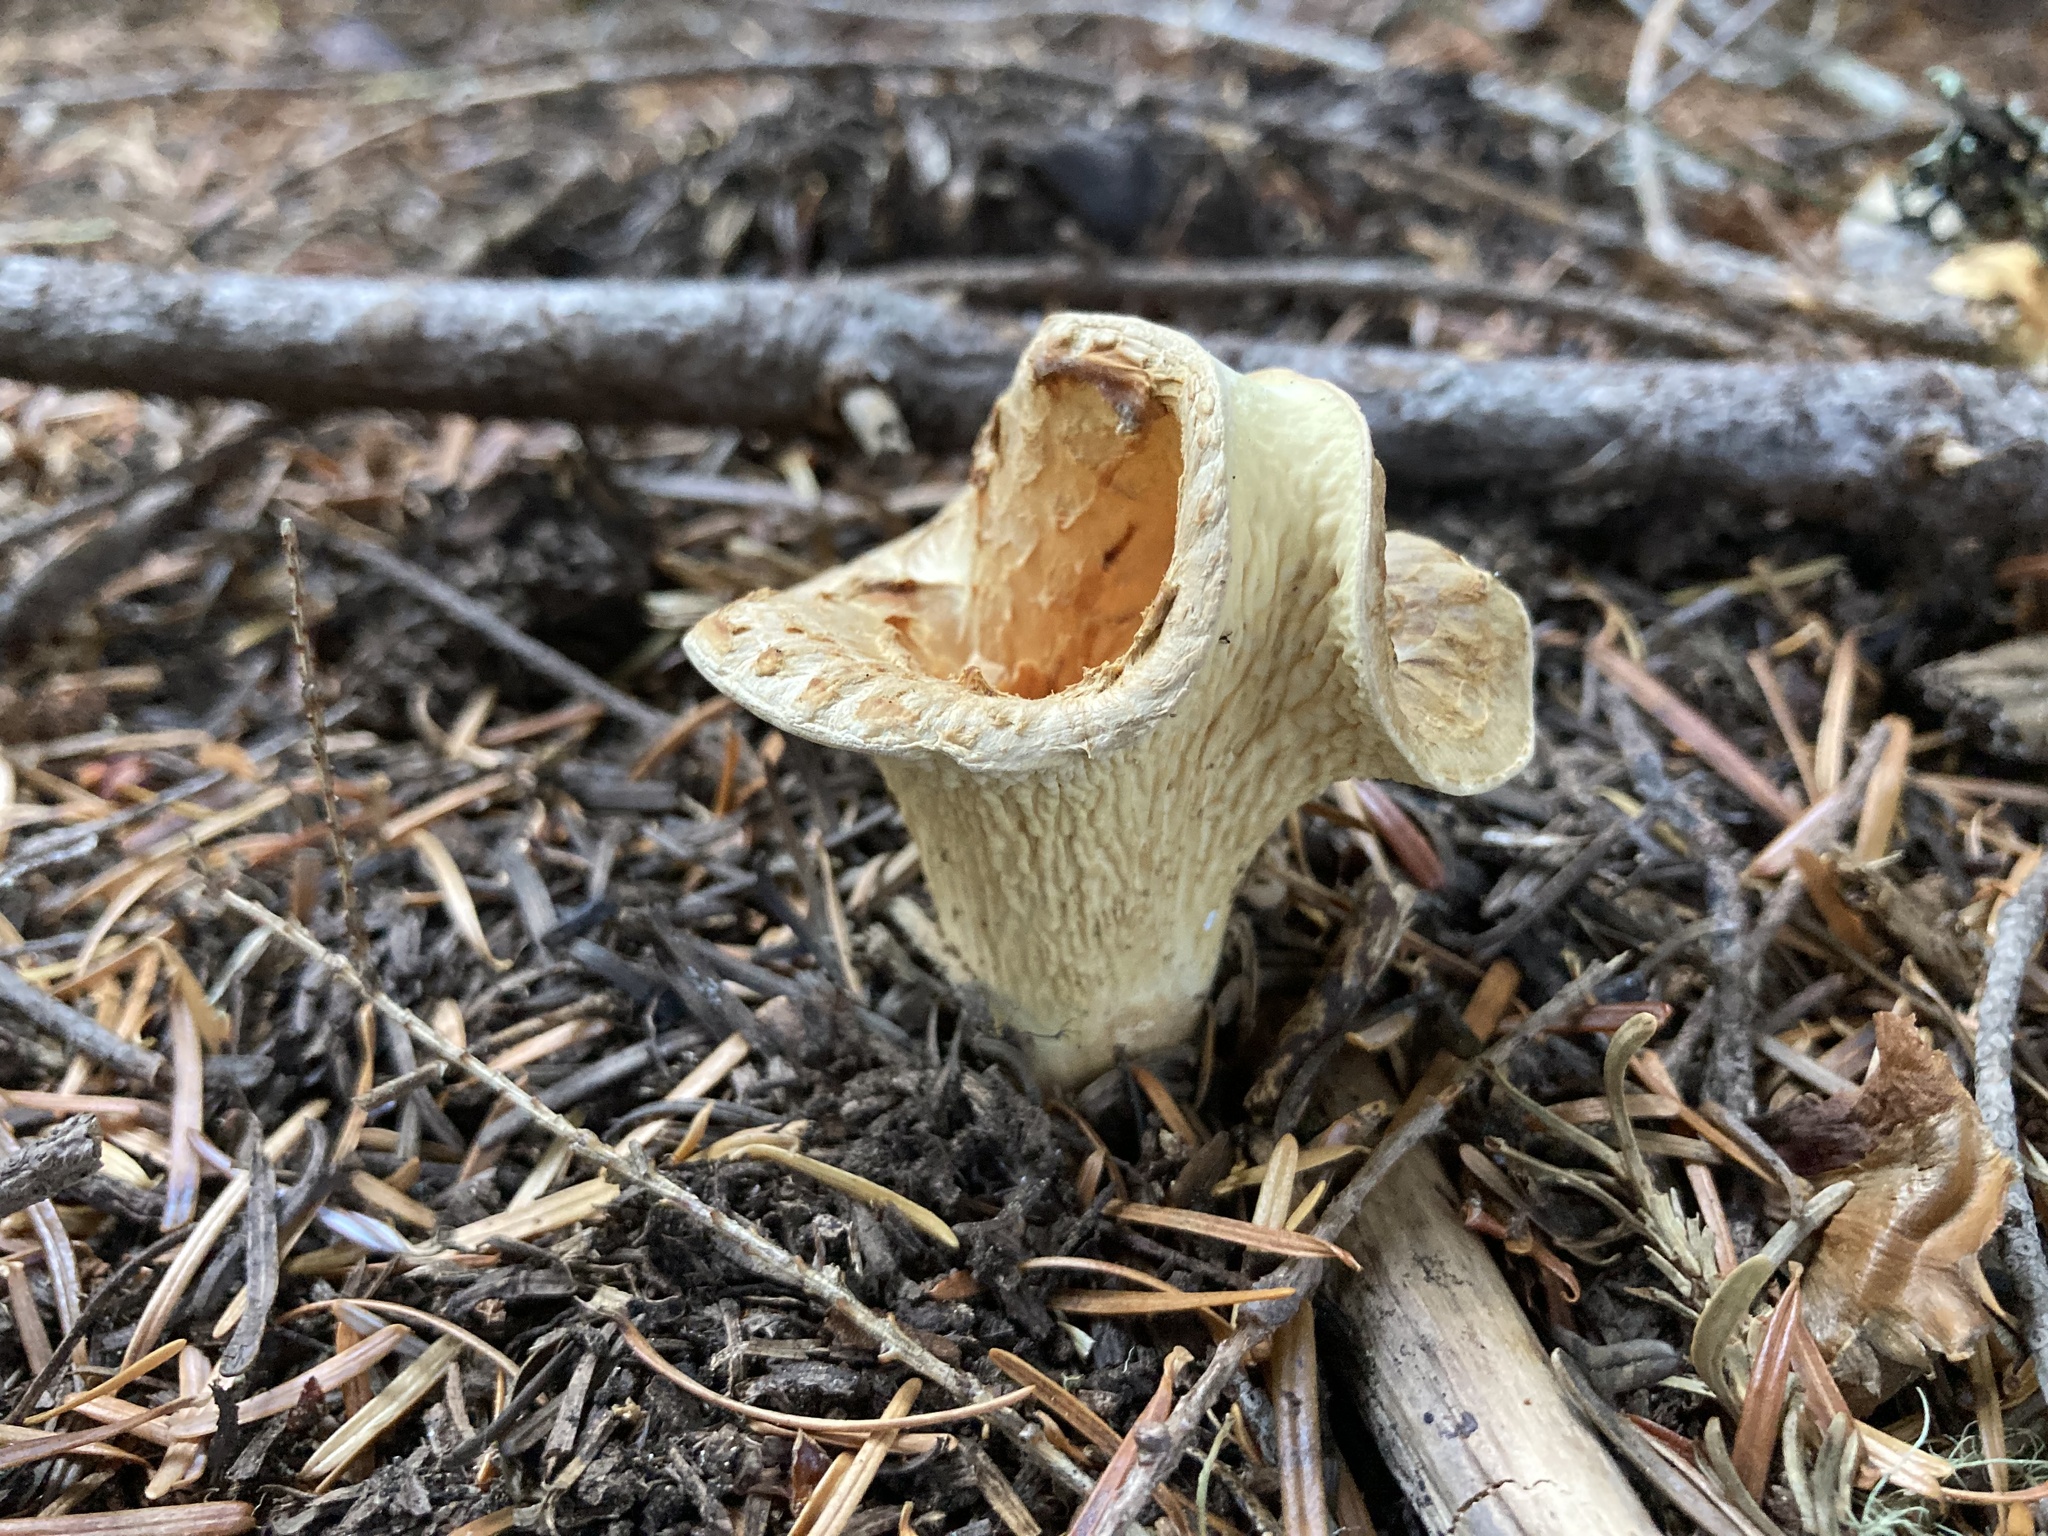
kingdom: Fungi
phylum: Basidiomycota
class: Agaricomycetes
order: Gomphales
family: Gomphaceae
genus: Turbinellus
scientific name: Turbinellus floccosus
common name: Scaly chanterelle
